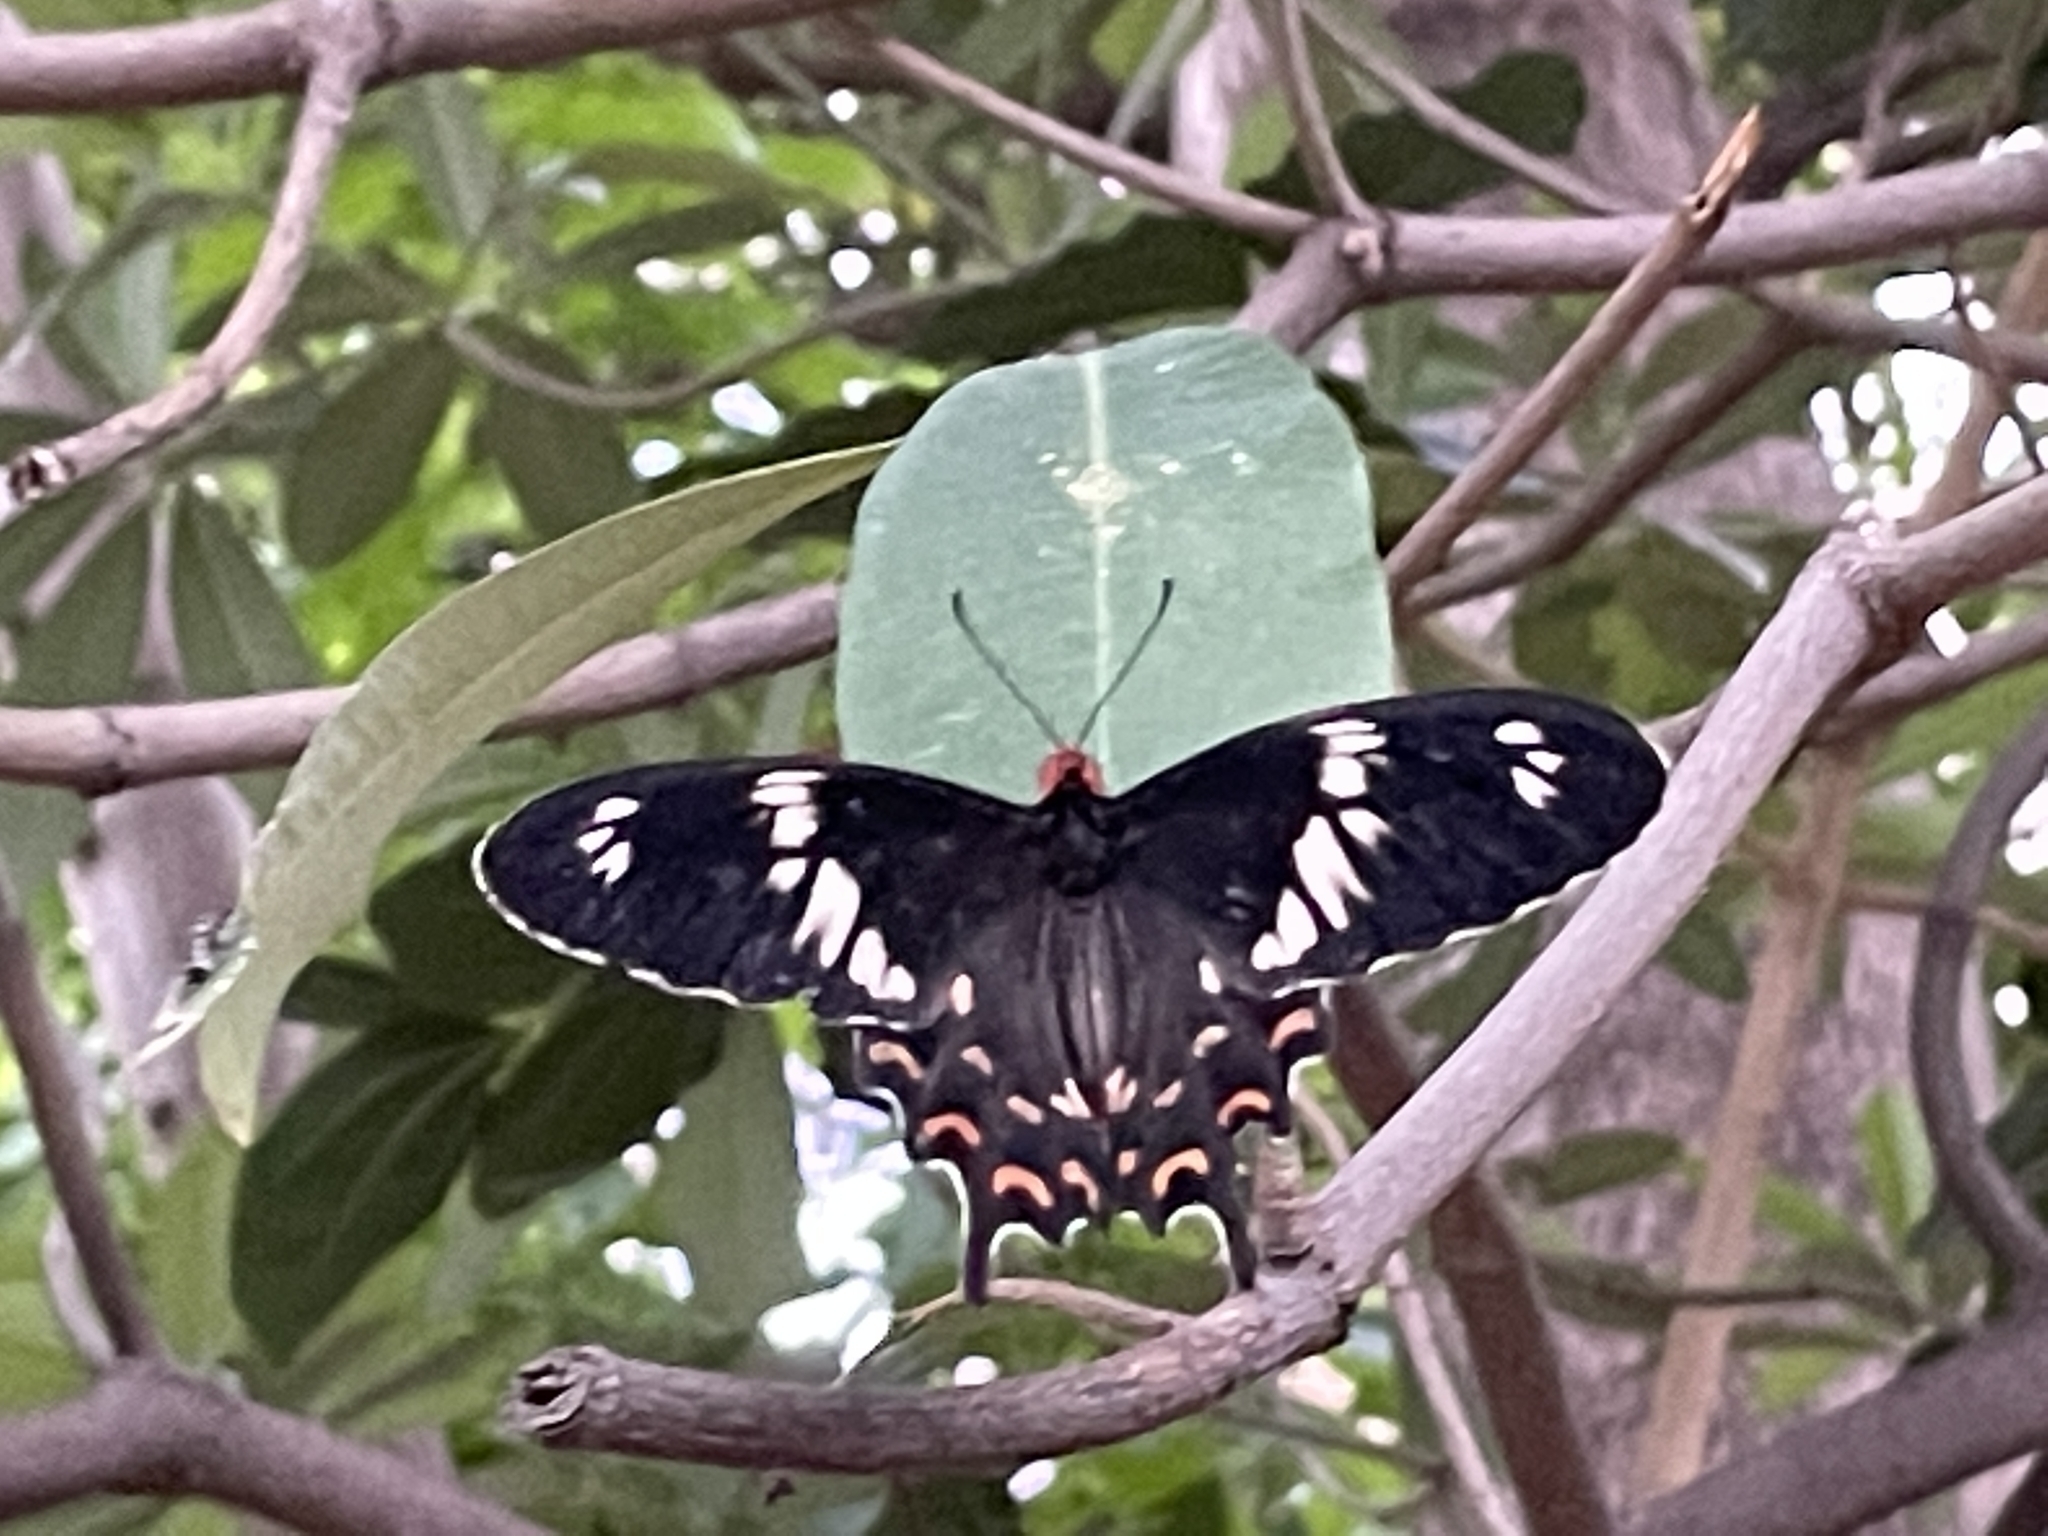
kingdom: Animalia
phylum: Arthropoda
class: Insecta
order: Lepidoptera
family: Papilionidae
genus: Pachliopta
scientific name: Pachliopta hector
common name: Crimson rose
